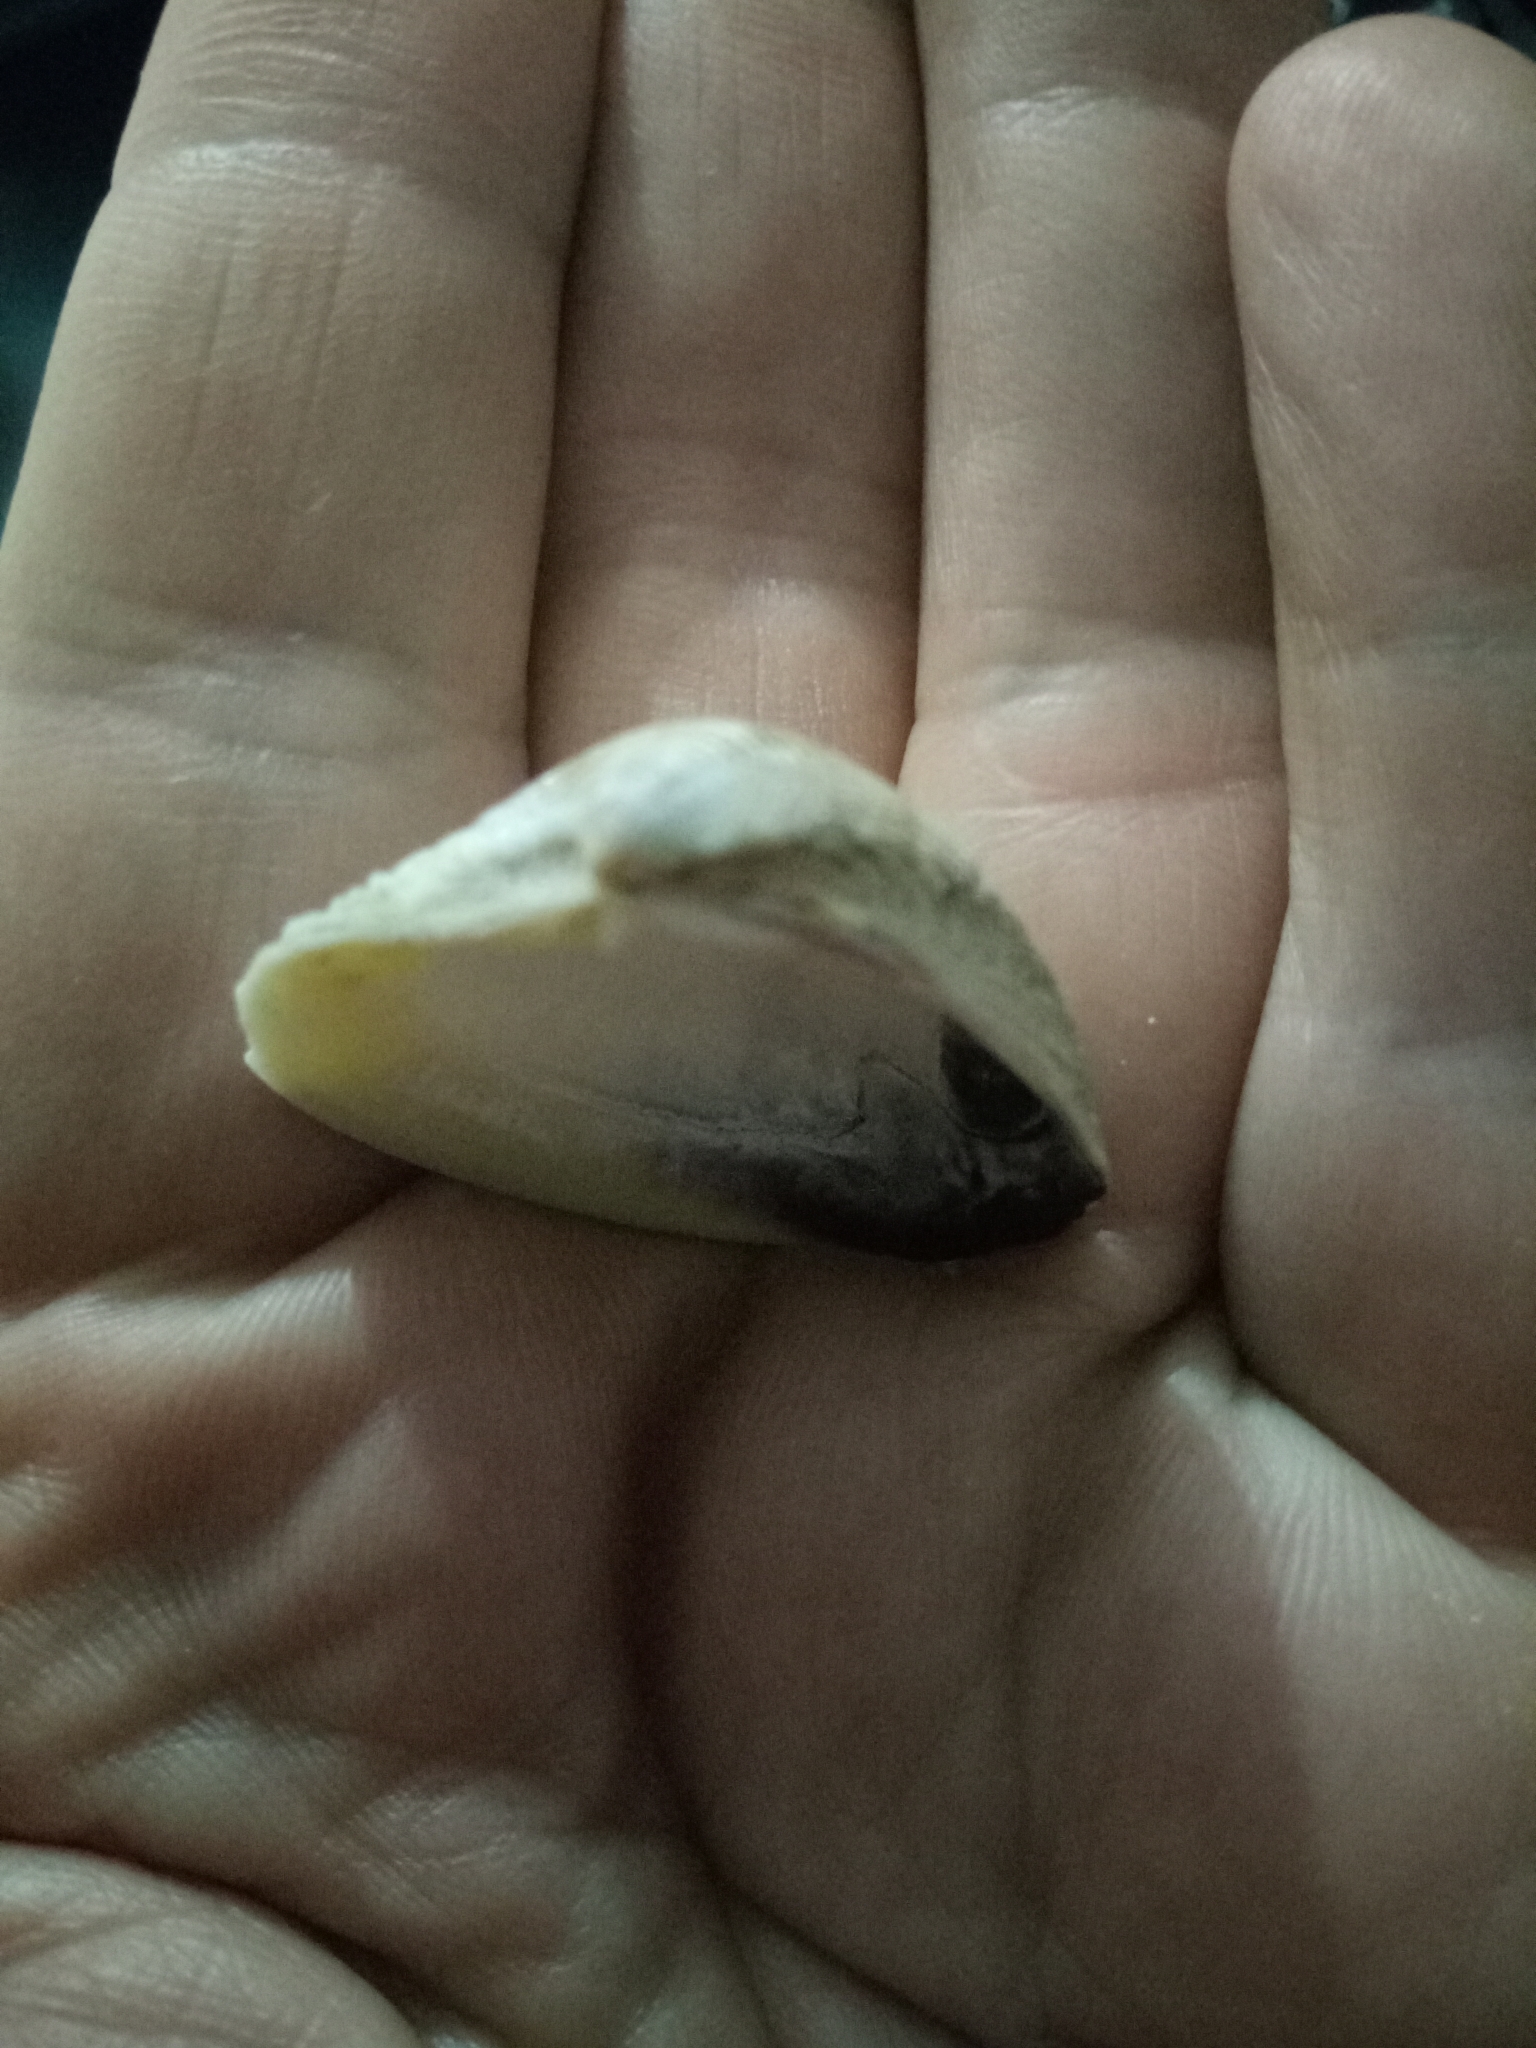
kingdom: Animalia
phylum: Mollusca
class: Bivalvia
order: Venerida
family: Veneridae
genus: Chamelea
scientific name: Chamelea gallina
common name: Chicken venus
